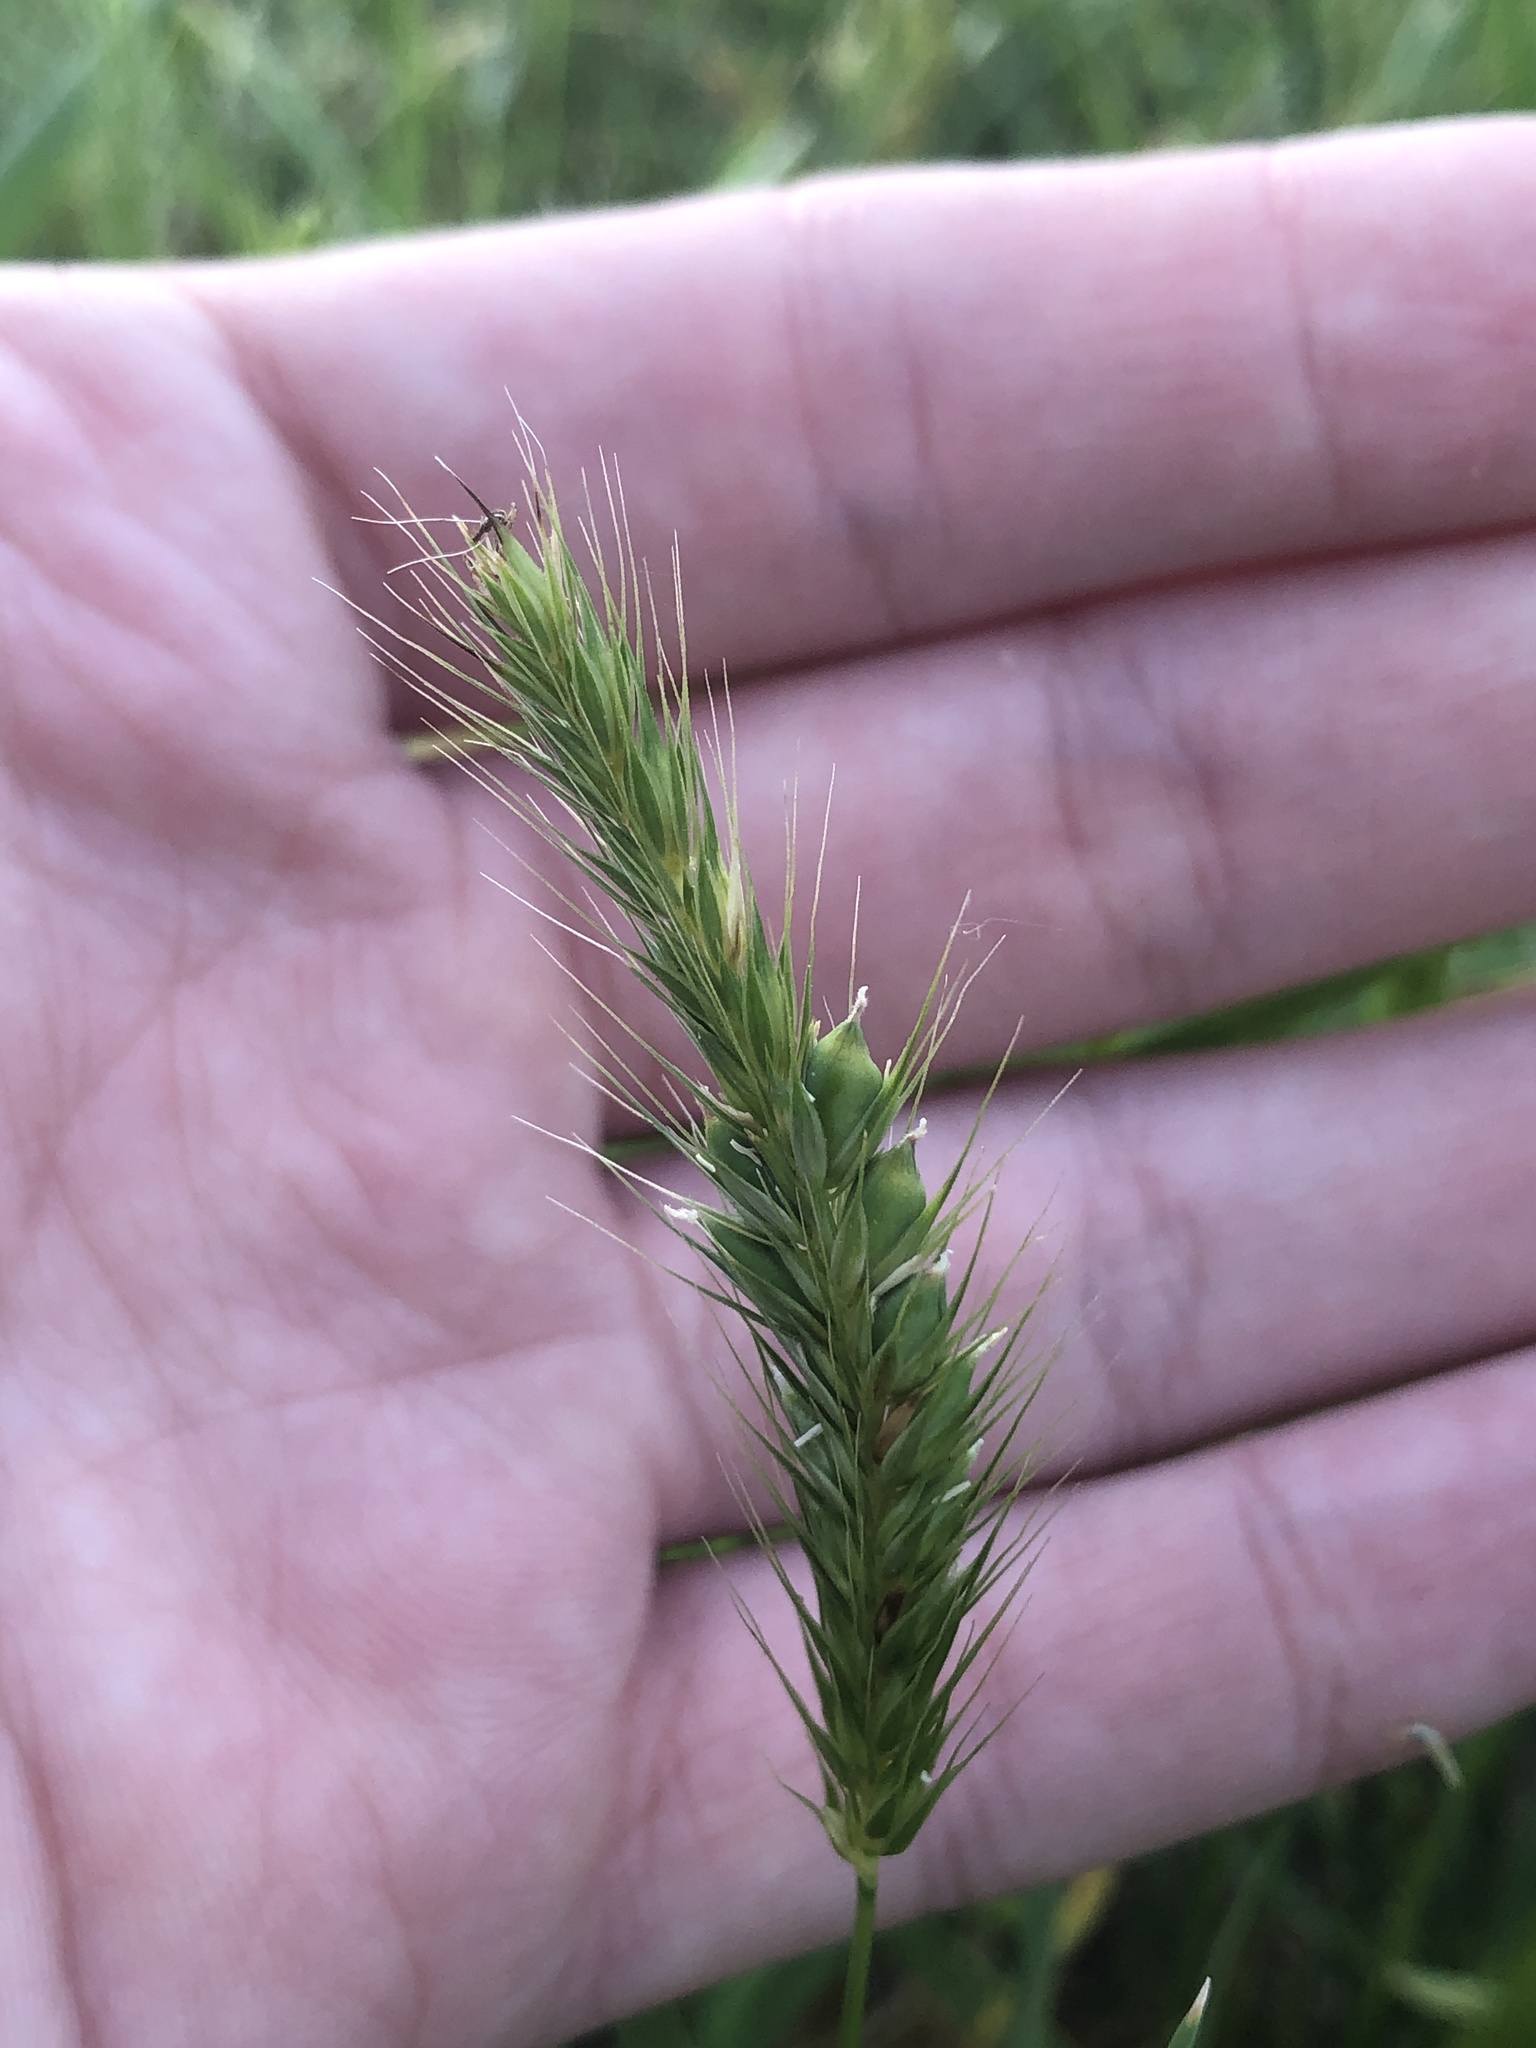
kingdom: Plantae
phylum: Tracheophyta
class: Liliopsida
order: Poales
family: Poaceae
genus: Hordeum
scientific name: Hordeum pusillum
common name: Little barley
